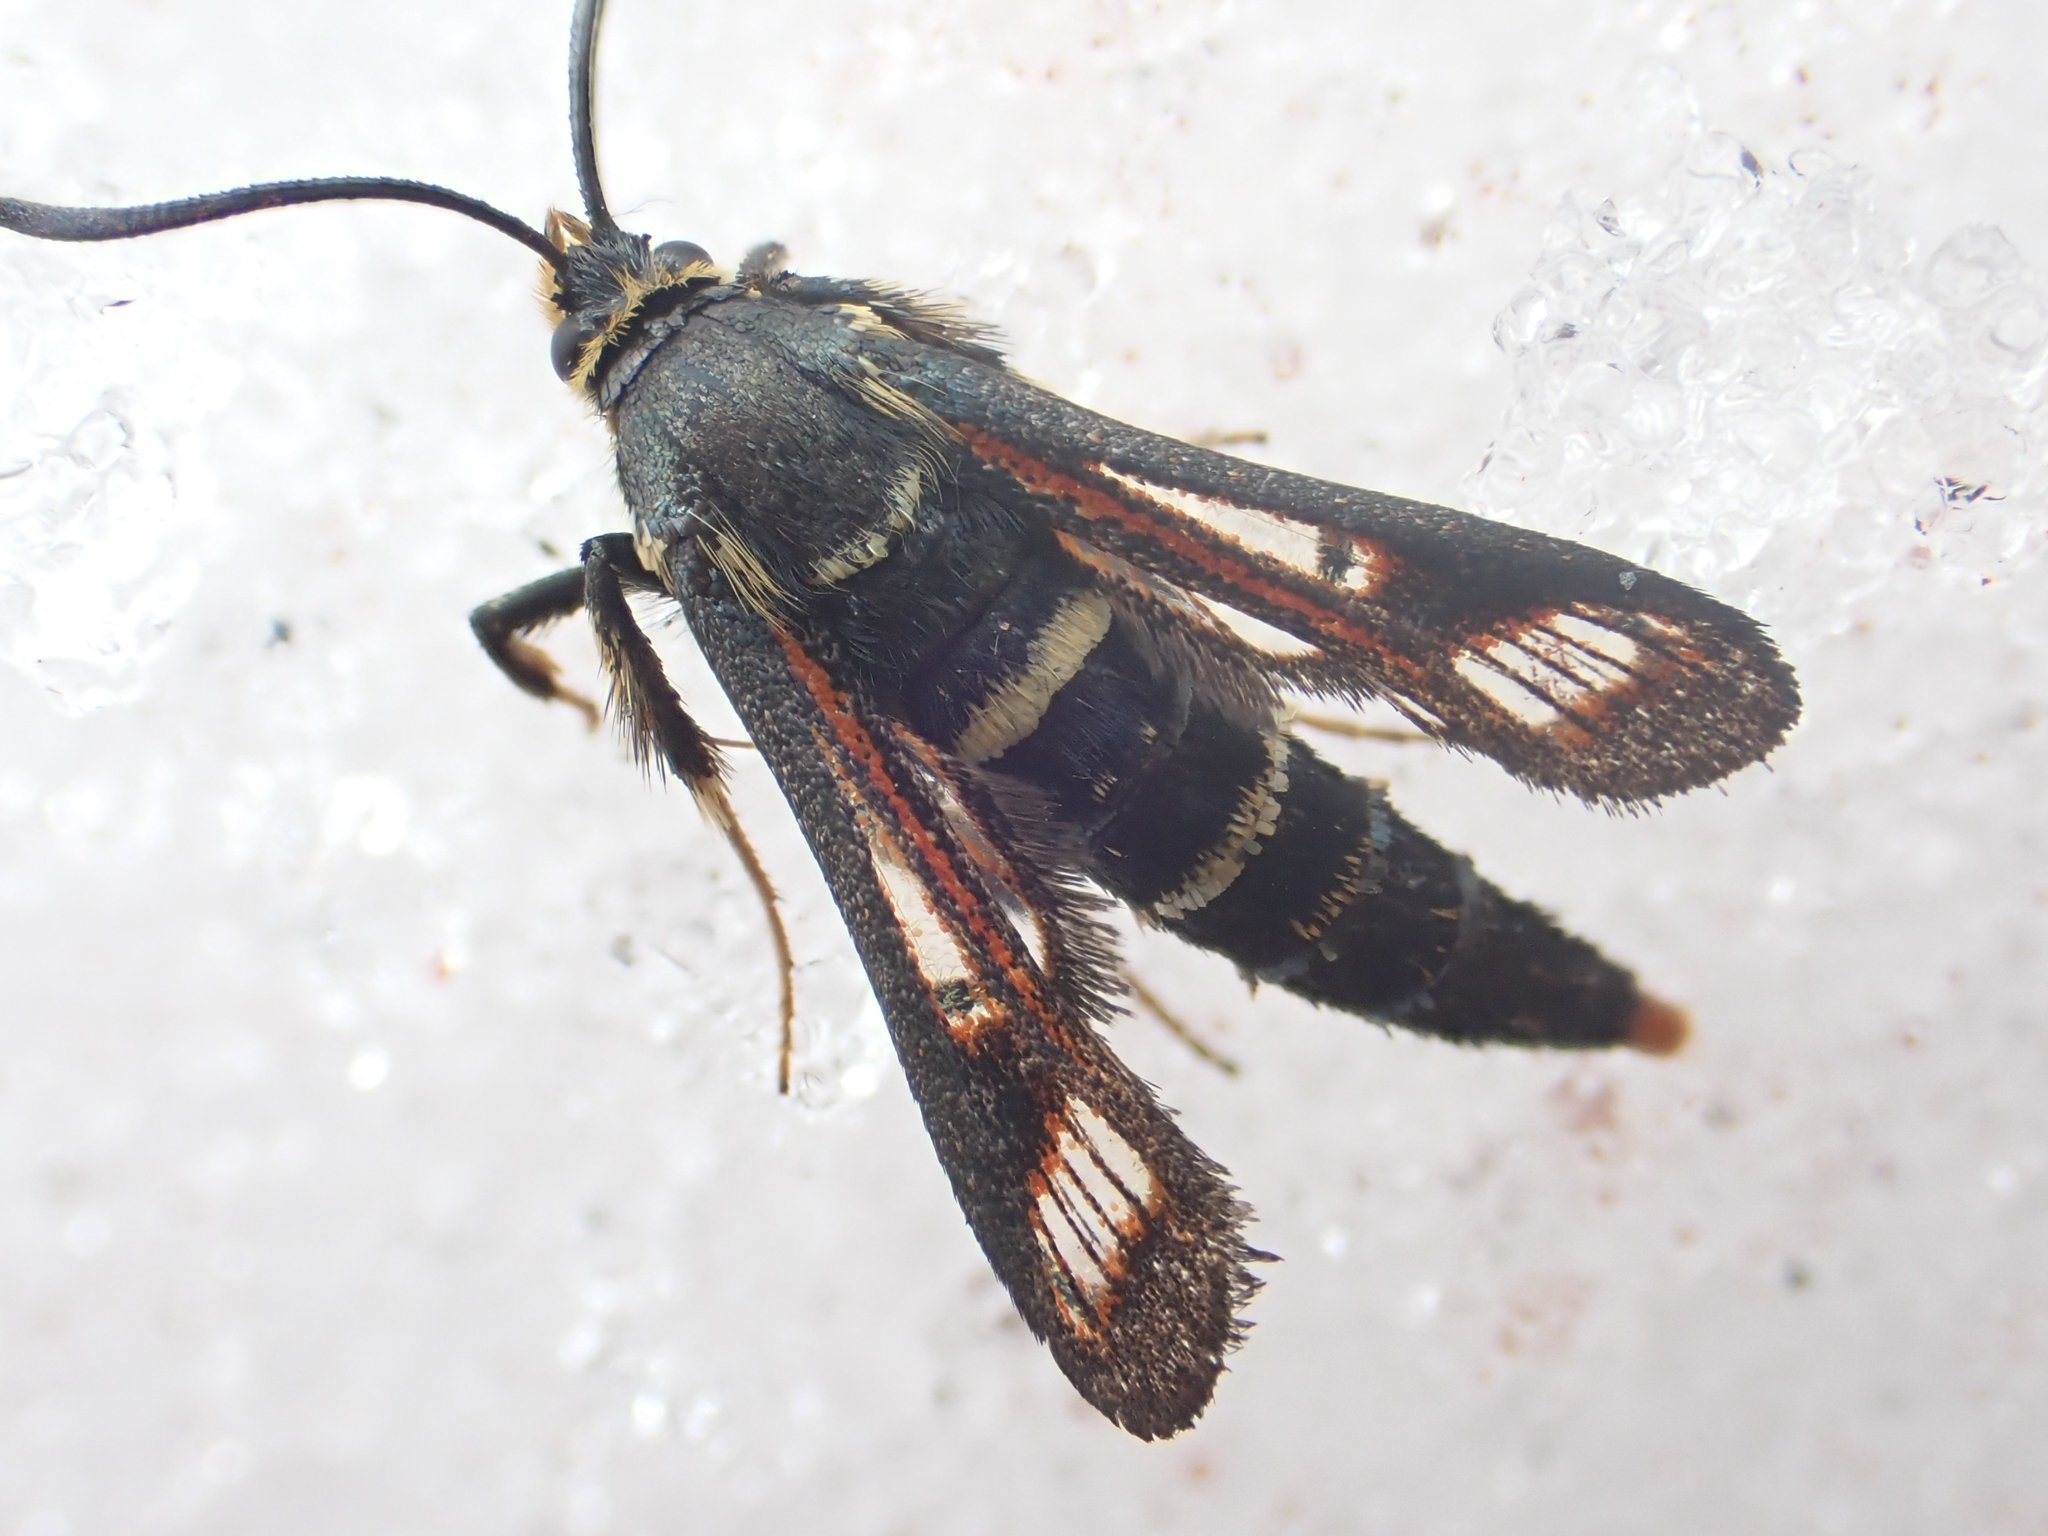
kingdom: Animalia
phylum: Arthropoda
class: Insecta
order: Lepidoptera
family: Sesiidae
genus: Albuna
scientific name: Albuna pyramidalis
